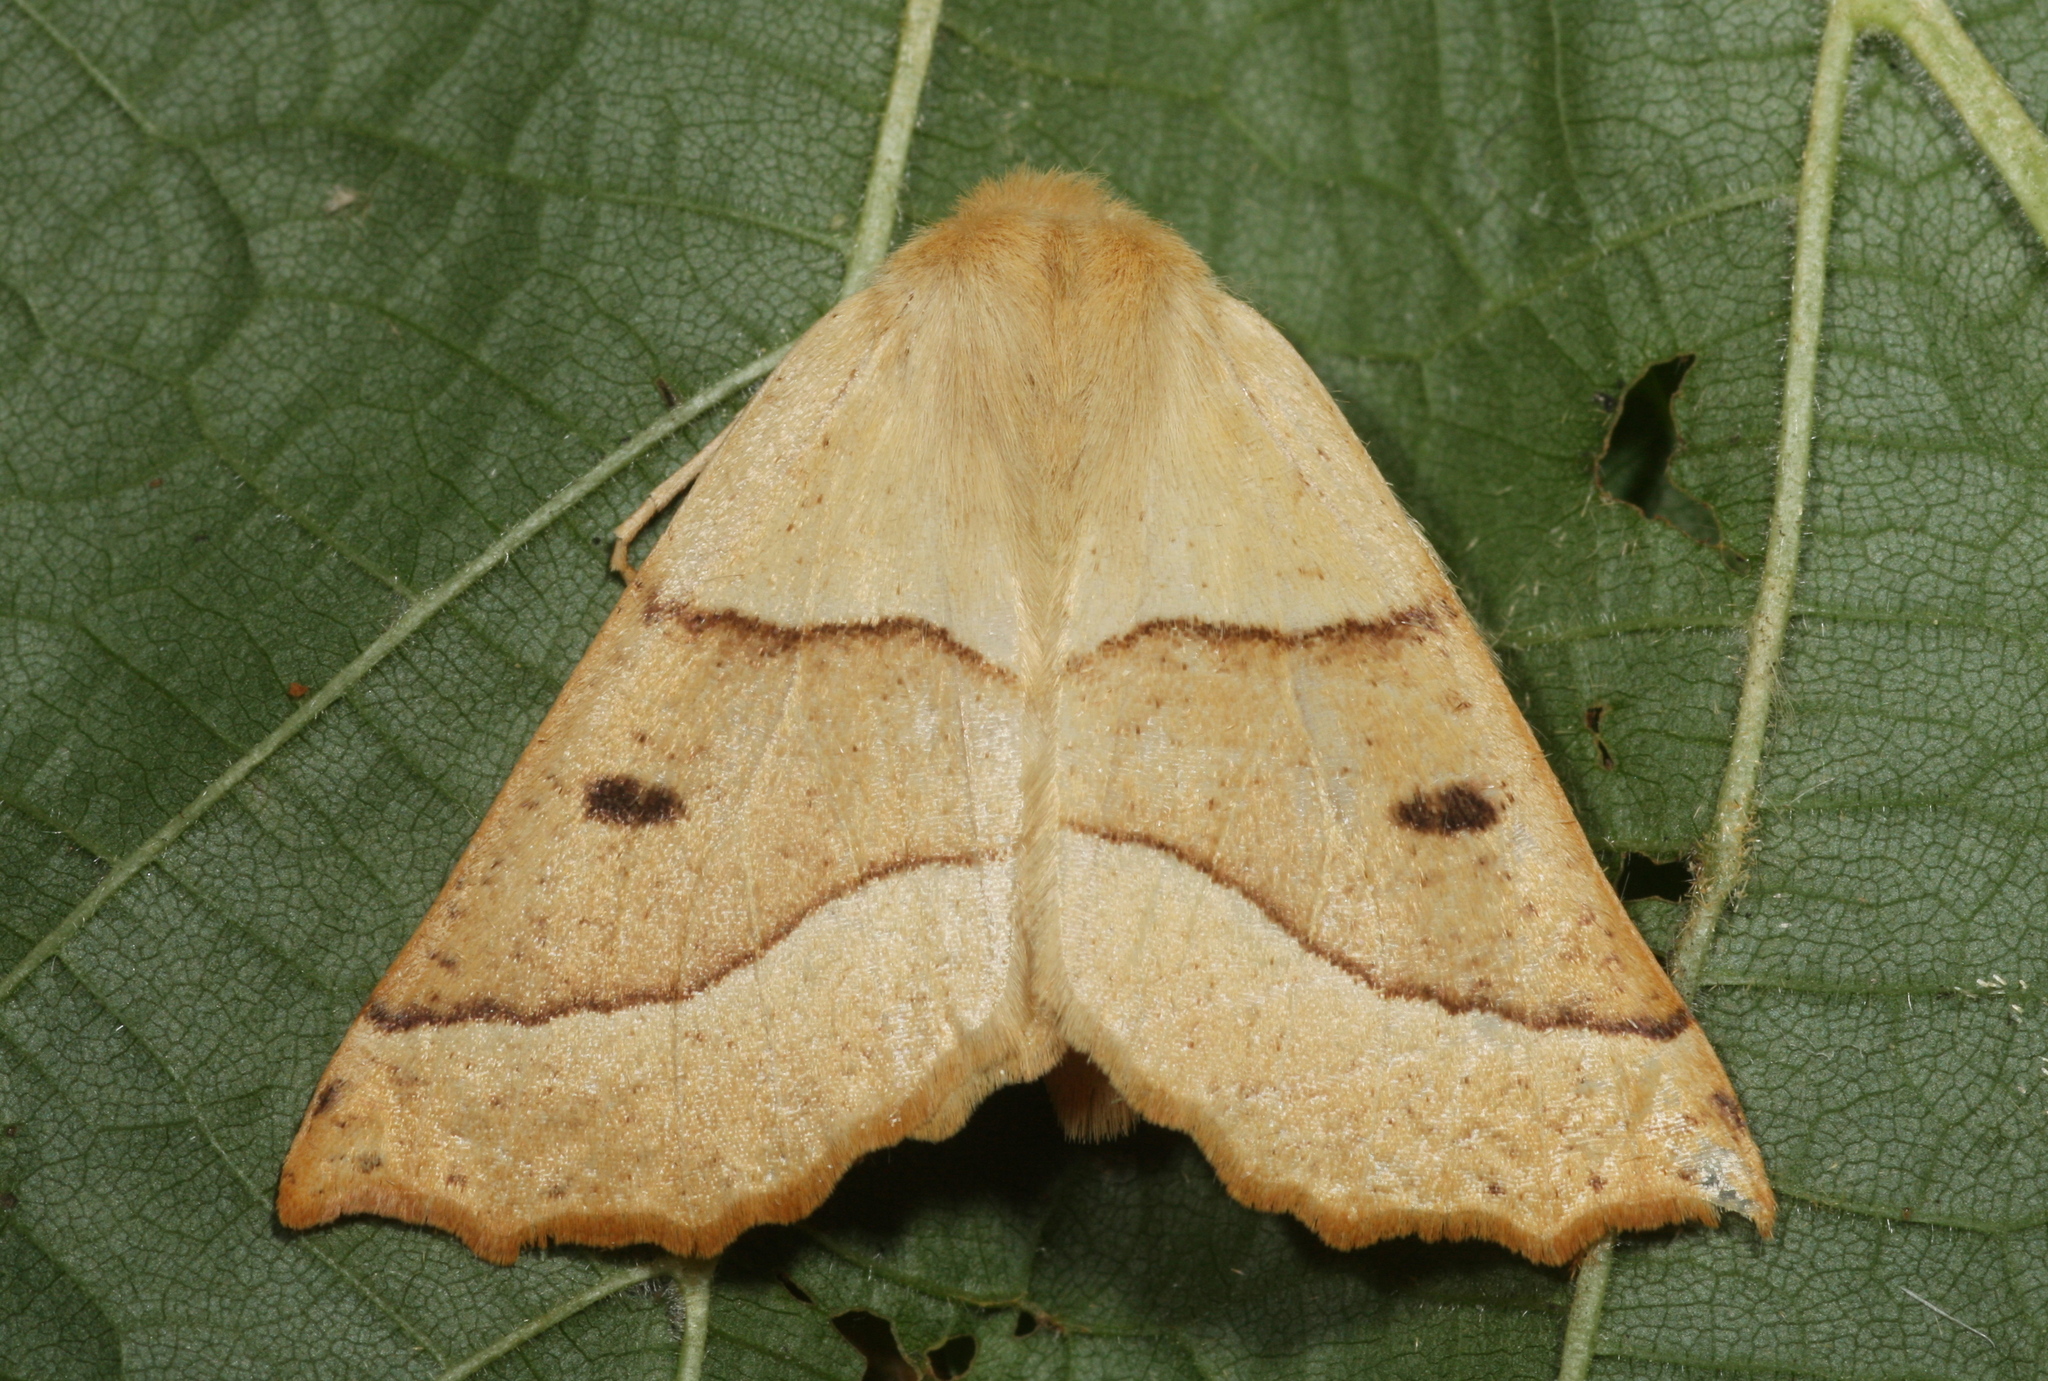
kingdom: Animalia
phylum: Arthropoda
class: Insecta
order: Lepidoptera
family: Geometridae
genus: Crocallis
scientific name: Crocallis elinguaria
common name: Scalloped oak
